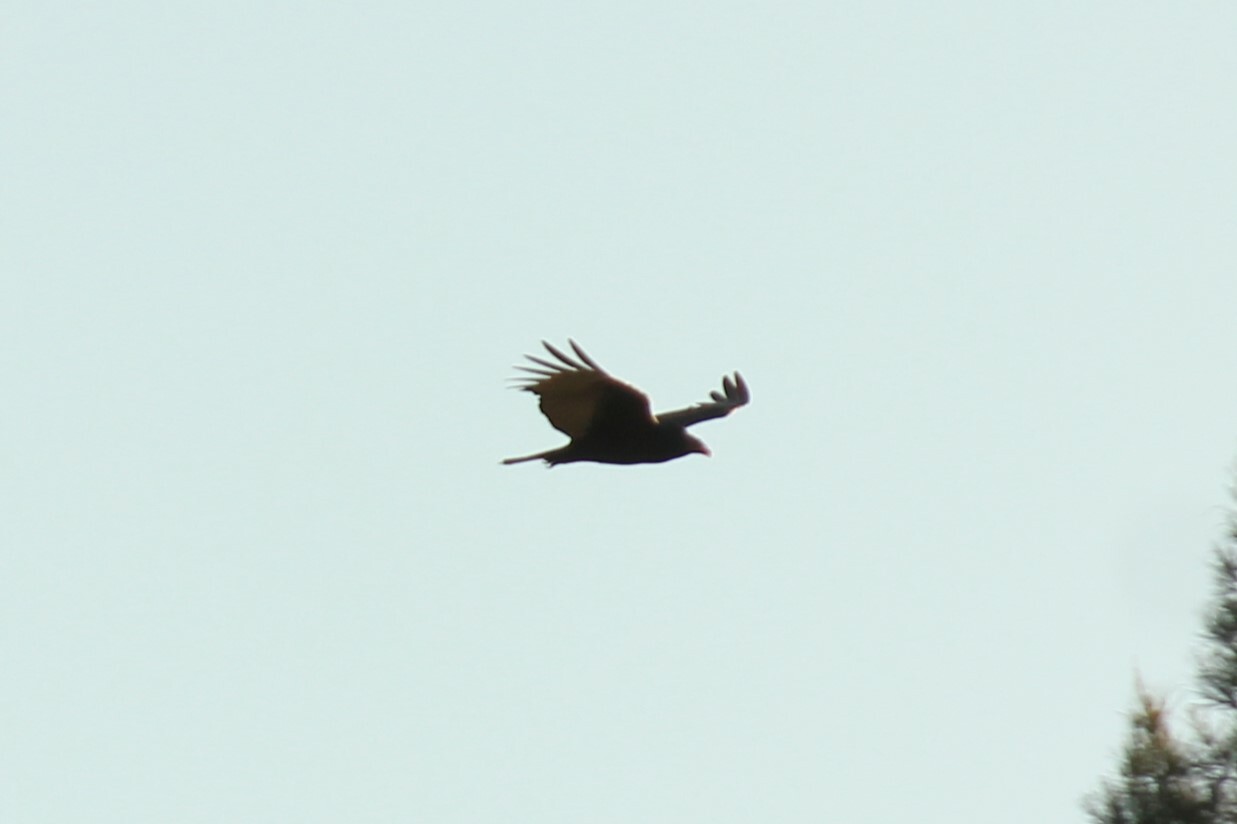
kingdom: Animalia
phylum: Chordata
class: Aves
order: Accipitriformes
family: Cathartidae
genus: Cathartes
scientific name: Cathartes aura
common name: Turkey vulture
